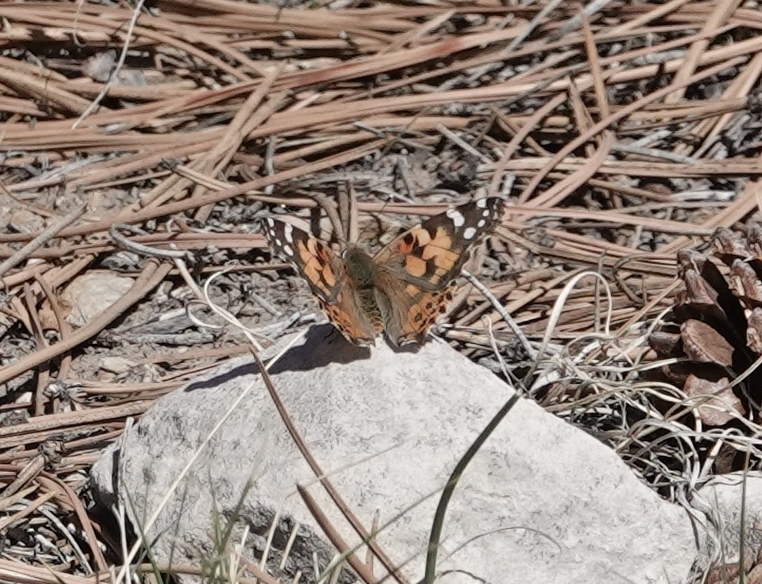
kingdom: Animalia
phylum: Arthropoda
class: Insecta
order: Lepidoptera
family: Nymphalidae
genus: Vanessa
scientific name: Vanessa cardui
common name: Painted lady
